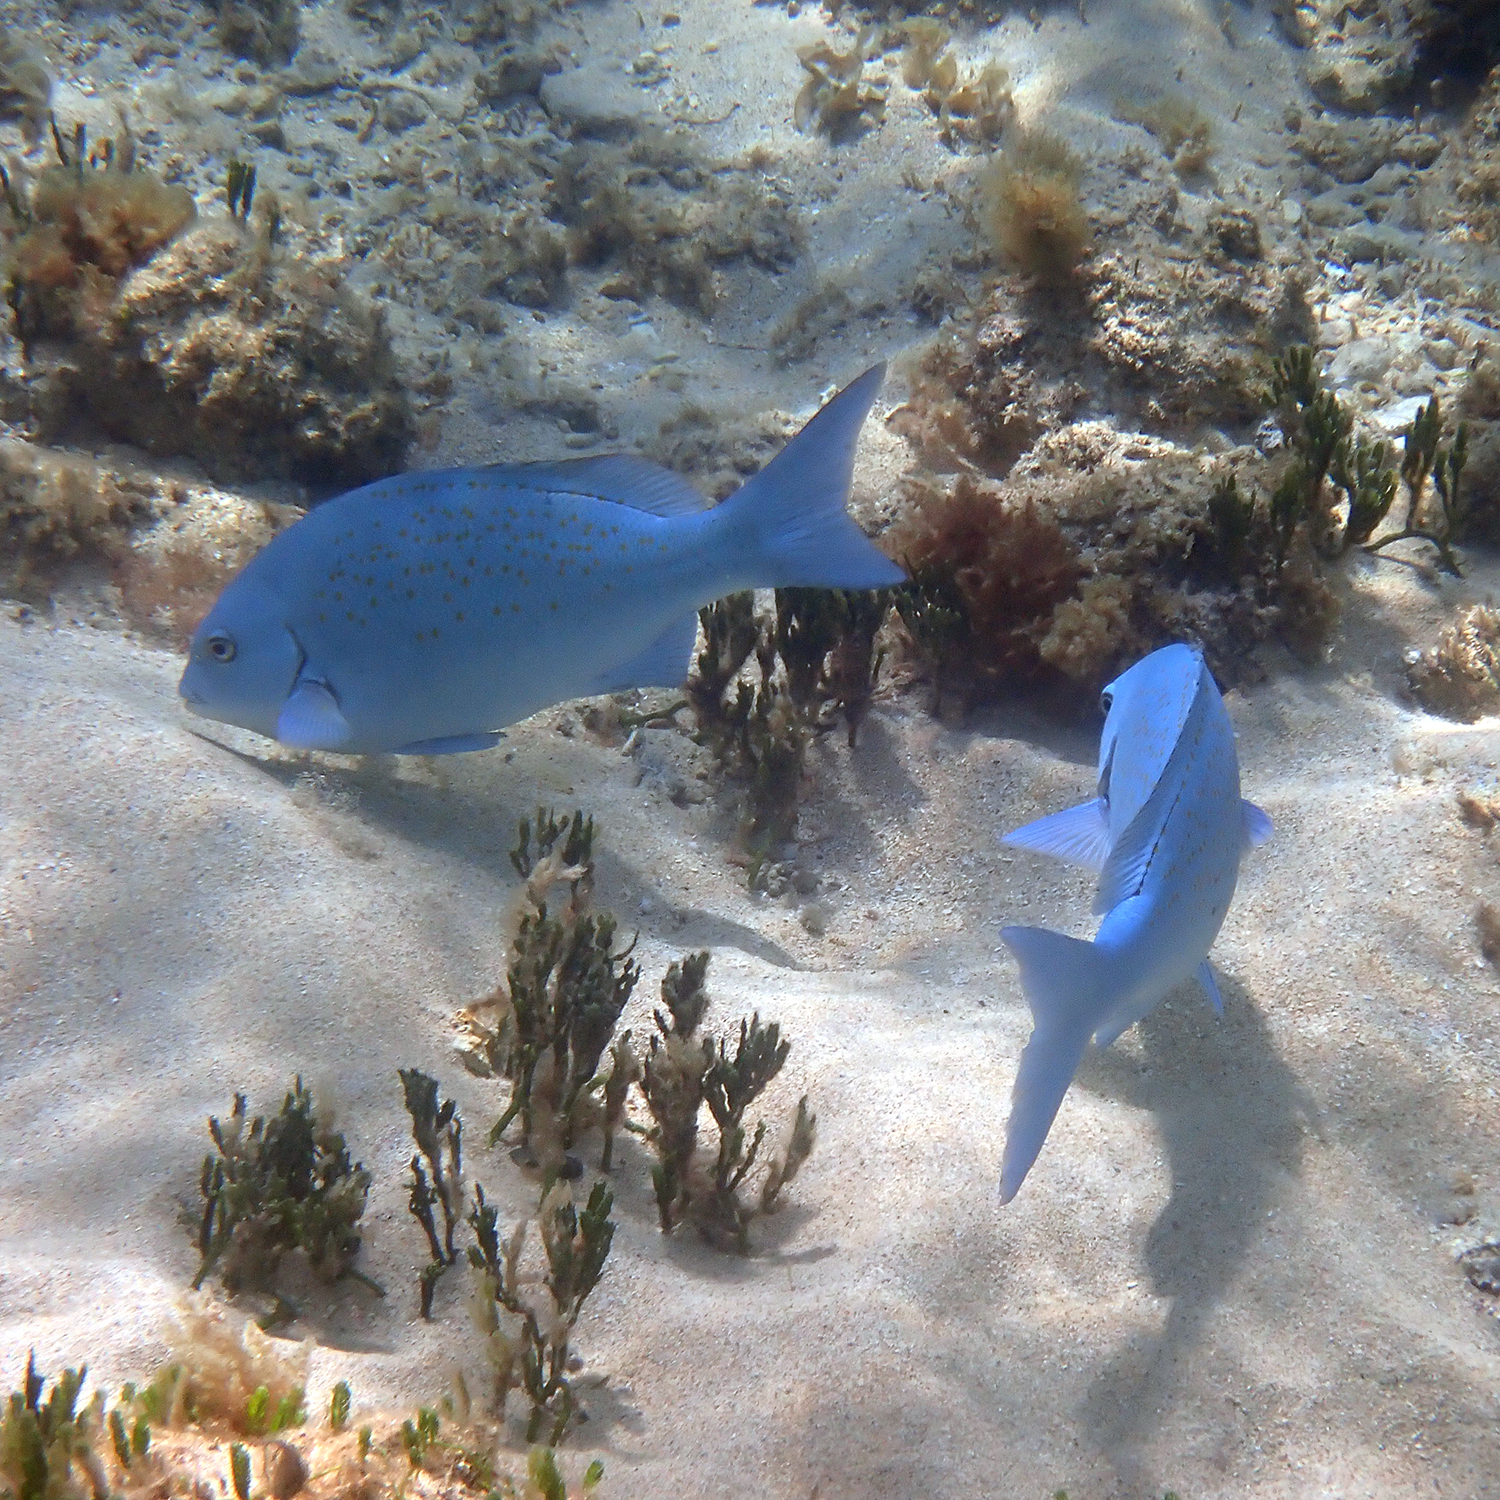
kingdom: Animalia
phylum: Chordata
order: Perciformes
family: Kyphosidae
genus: Girella
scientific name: Girella cyanea
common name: Bluefish
